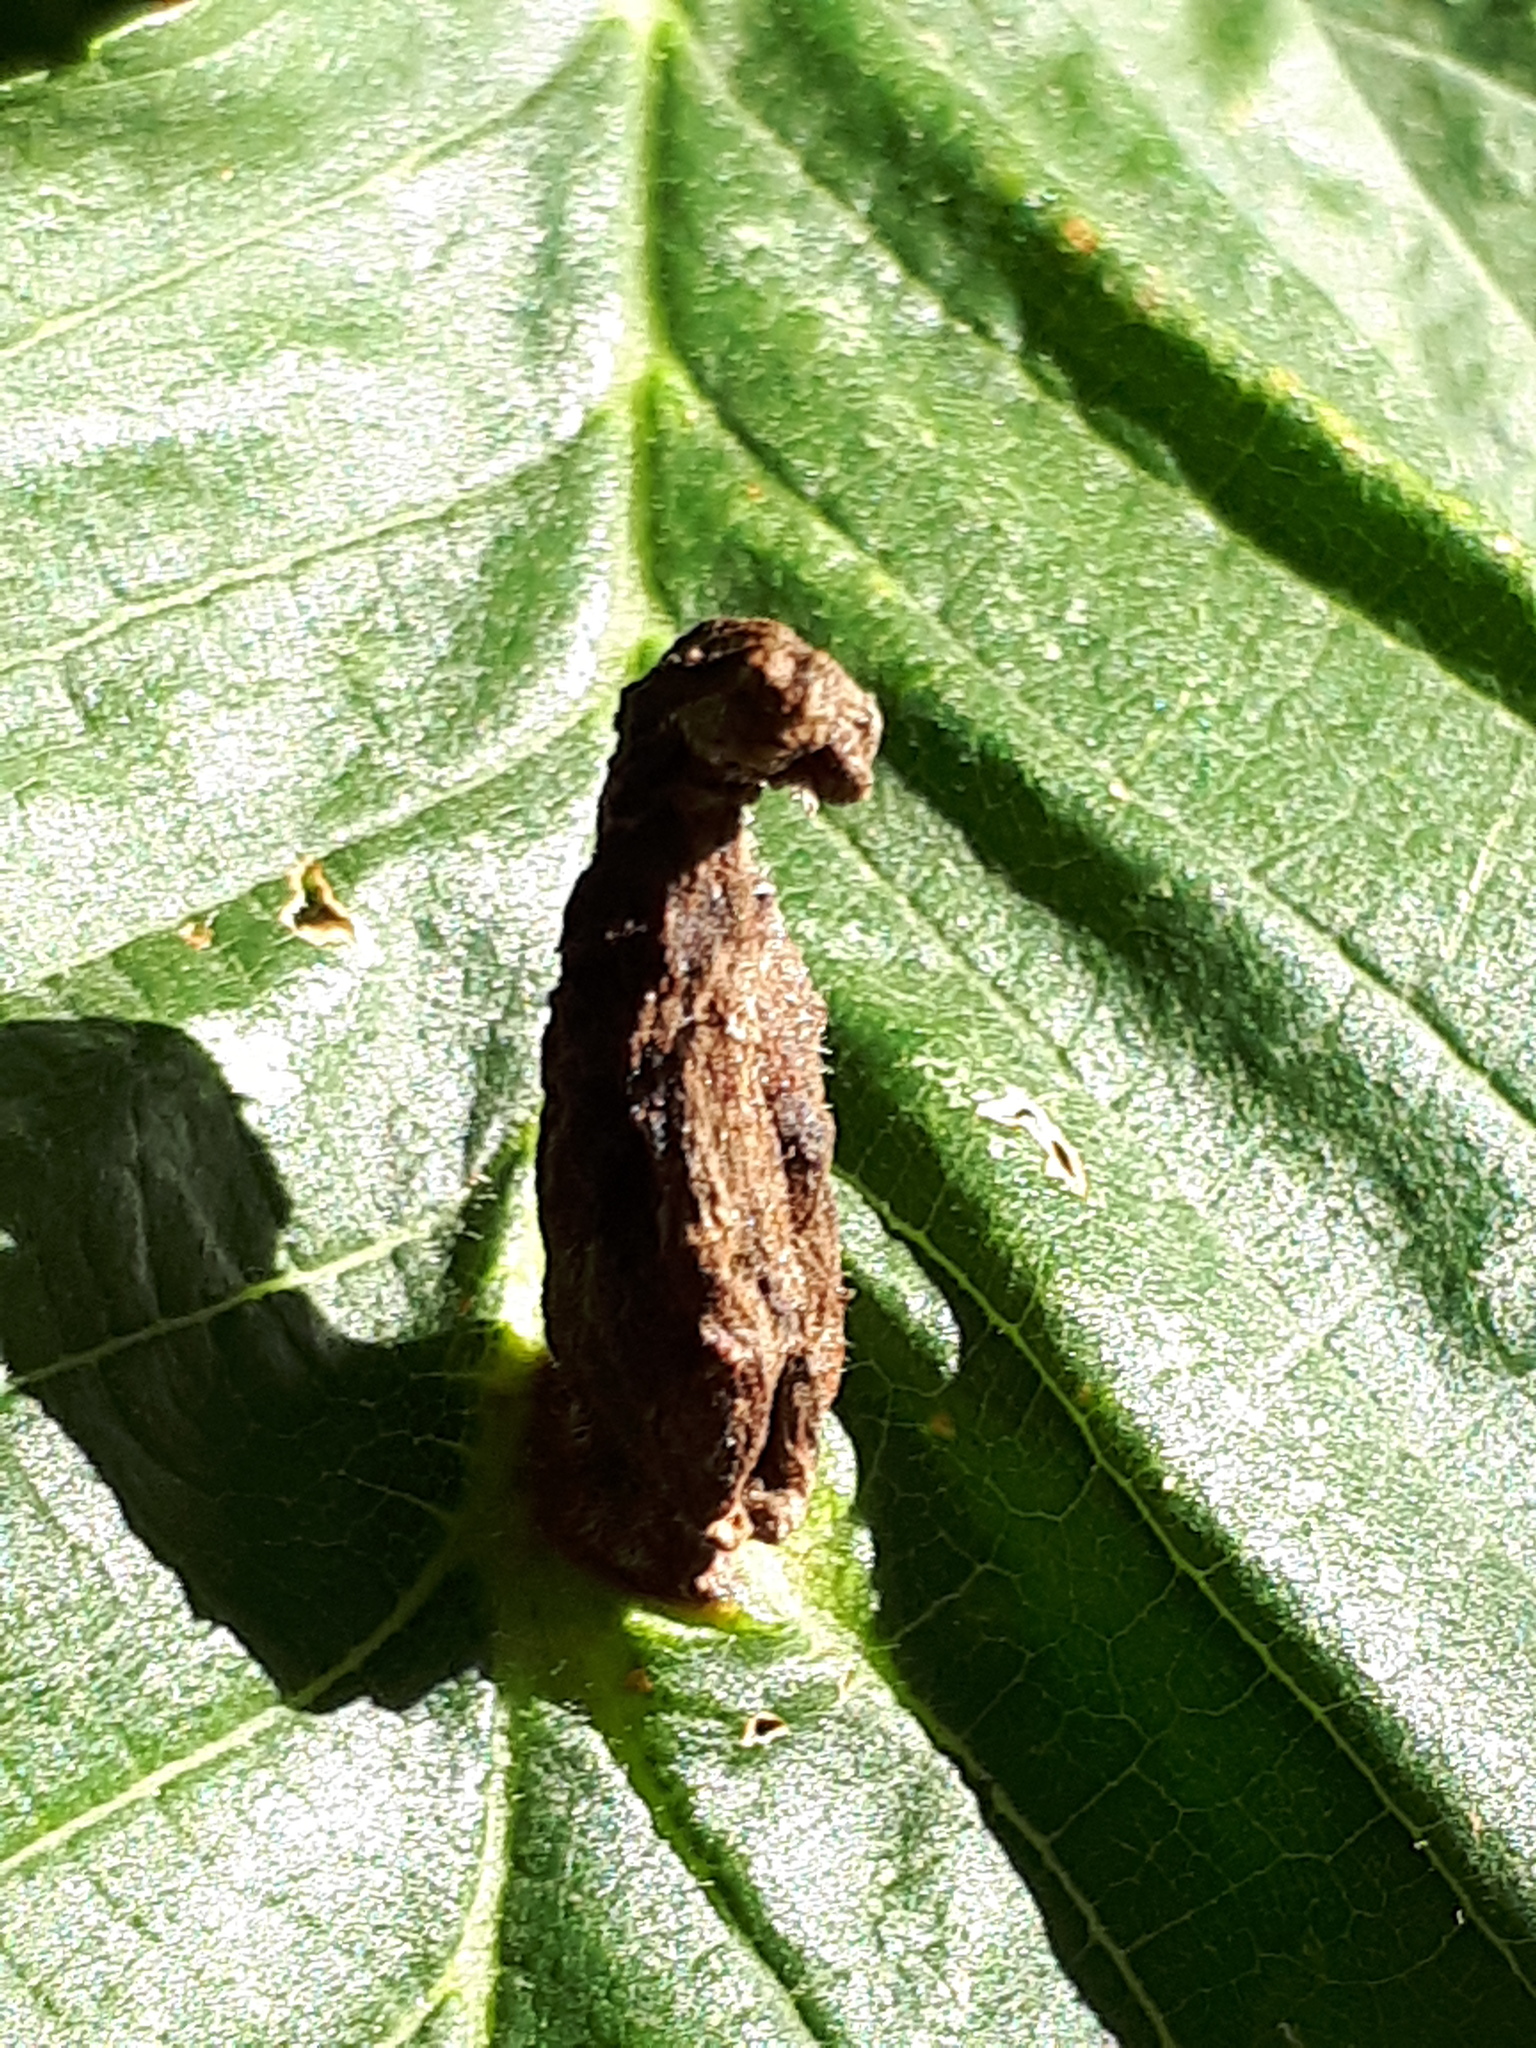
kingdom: Animalia
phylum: Arthropoda
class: Insecta
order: Hemiptera
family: Aphididae
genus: Colopha
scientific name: Colopha compressa
